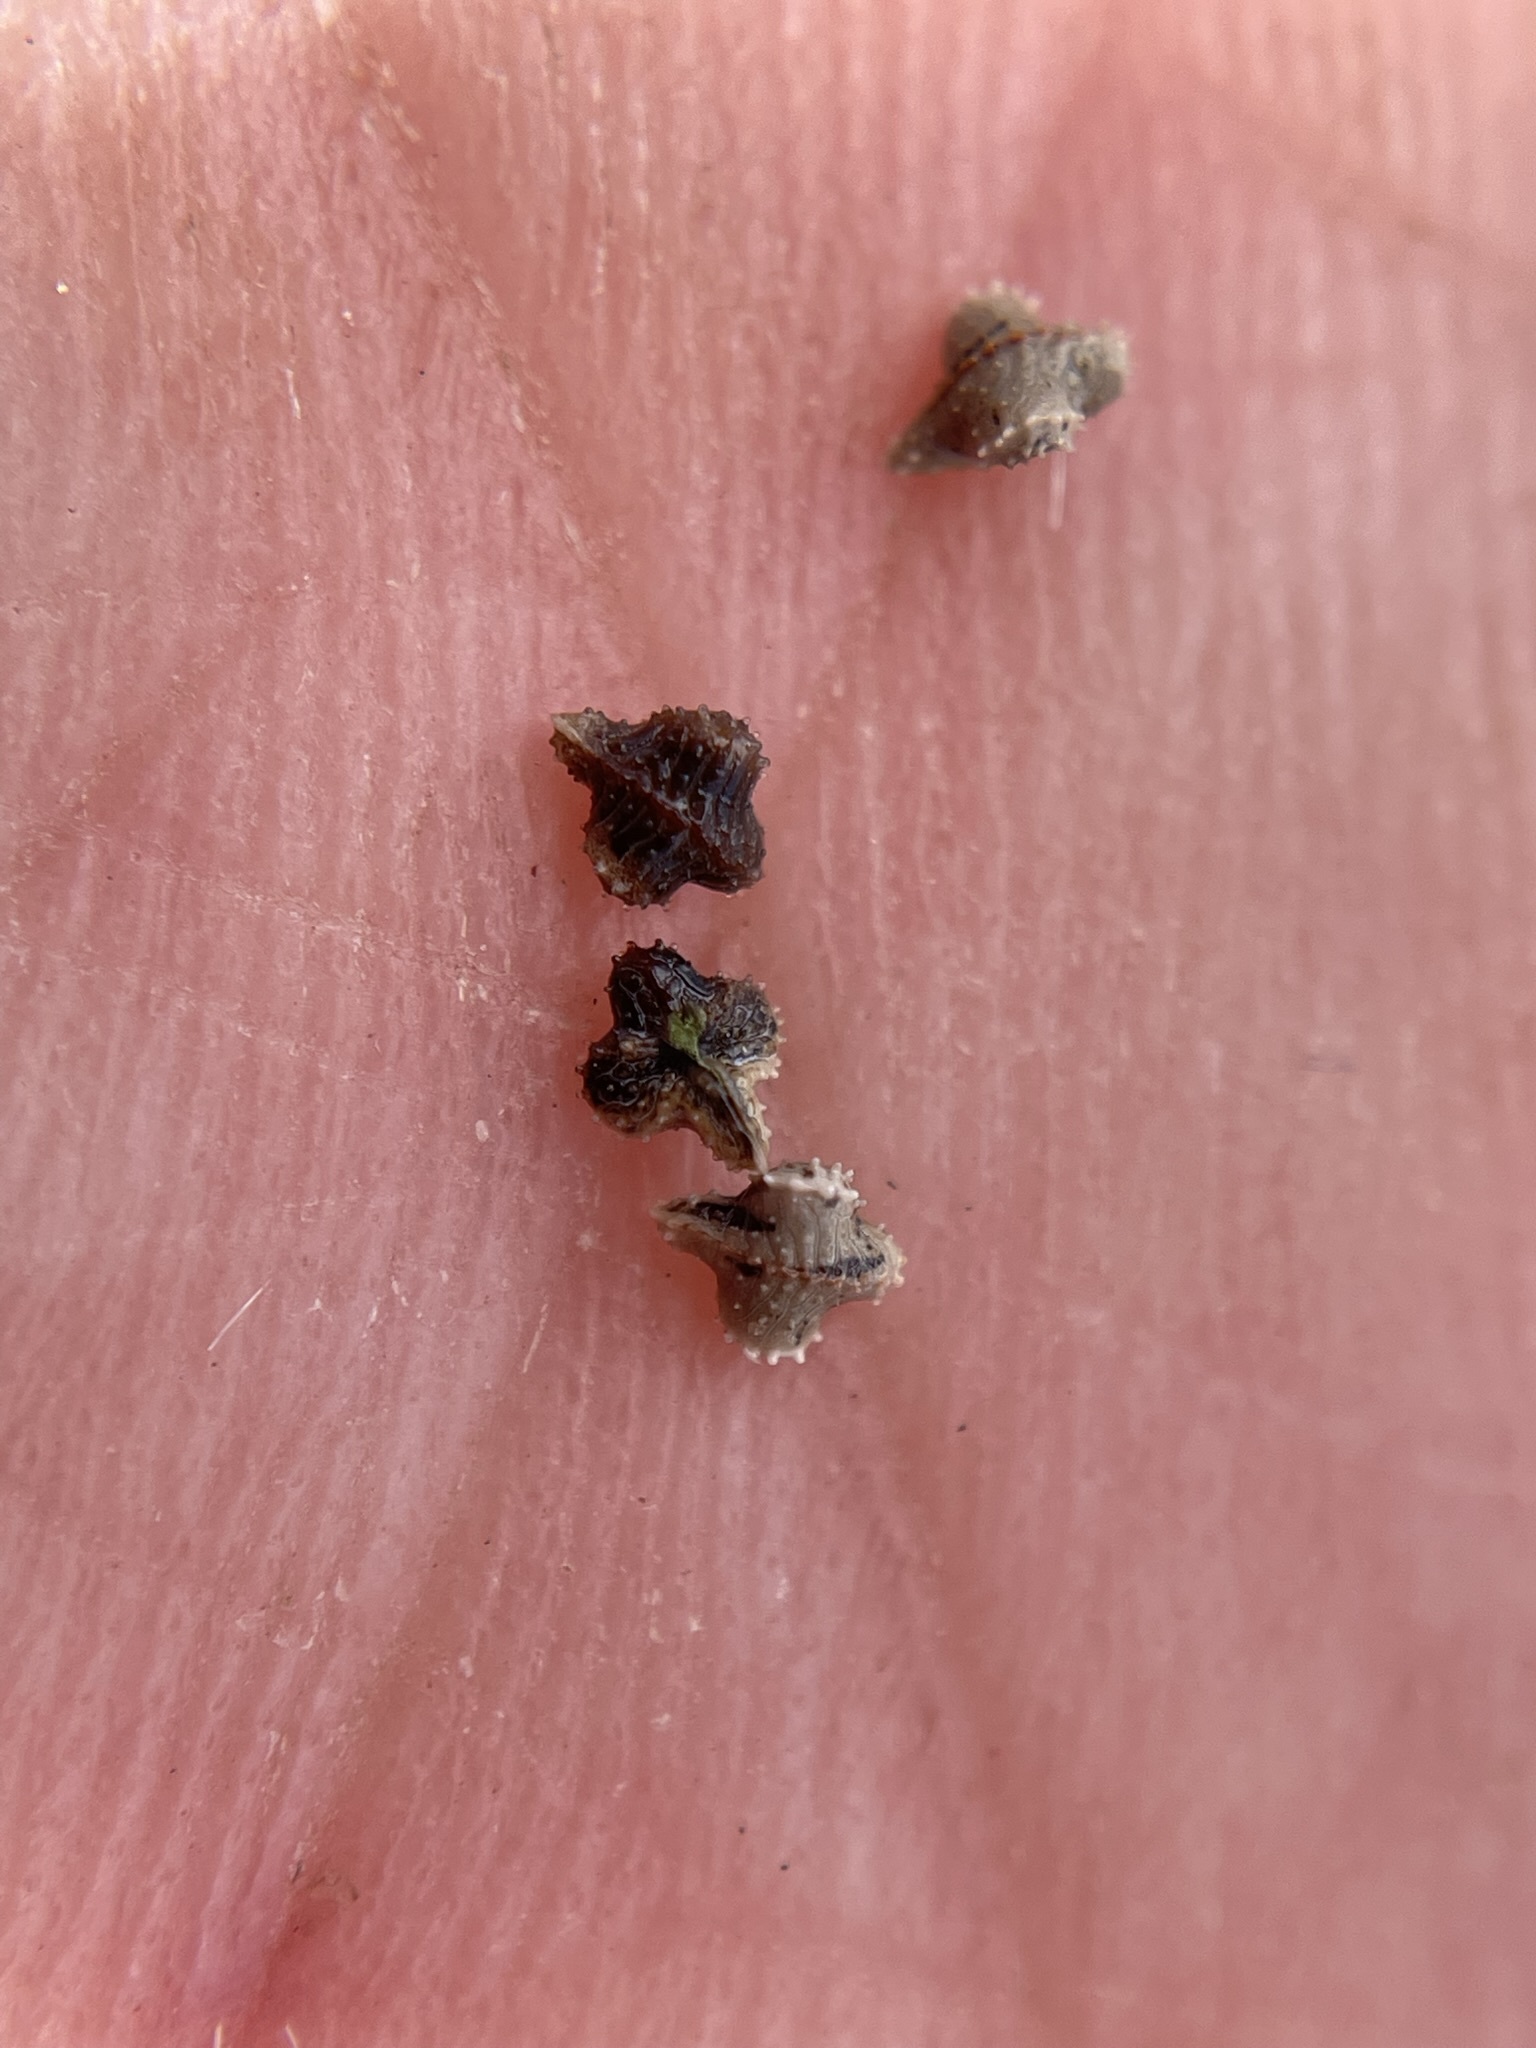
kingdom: Plantae
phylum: Tracheophyta
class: Magnoliopsida
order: Boraginales
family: Boraginaceae
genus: Plagiobothrys
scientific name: Plagiobothrys tenellus
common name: Pacific popcornflower
